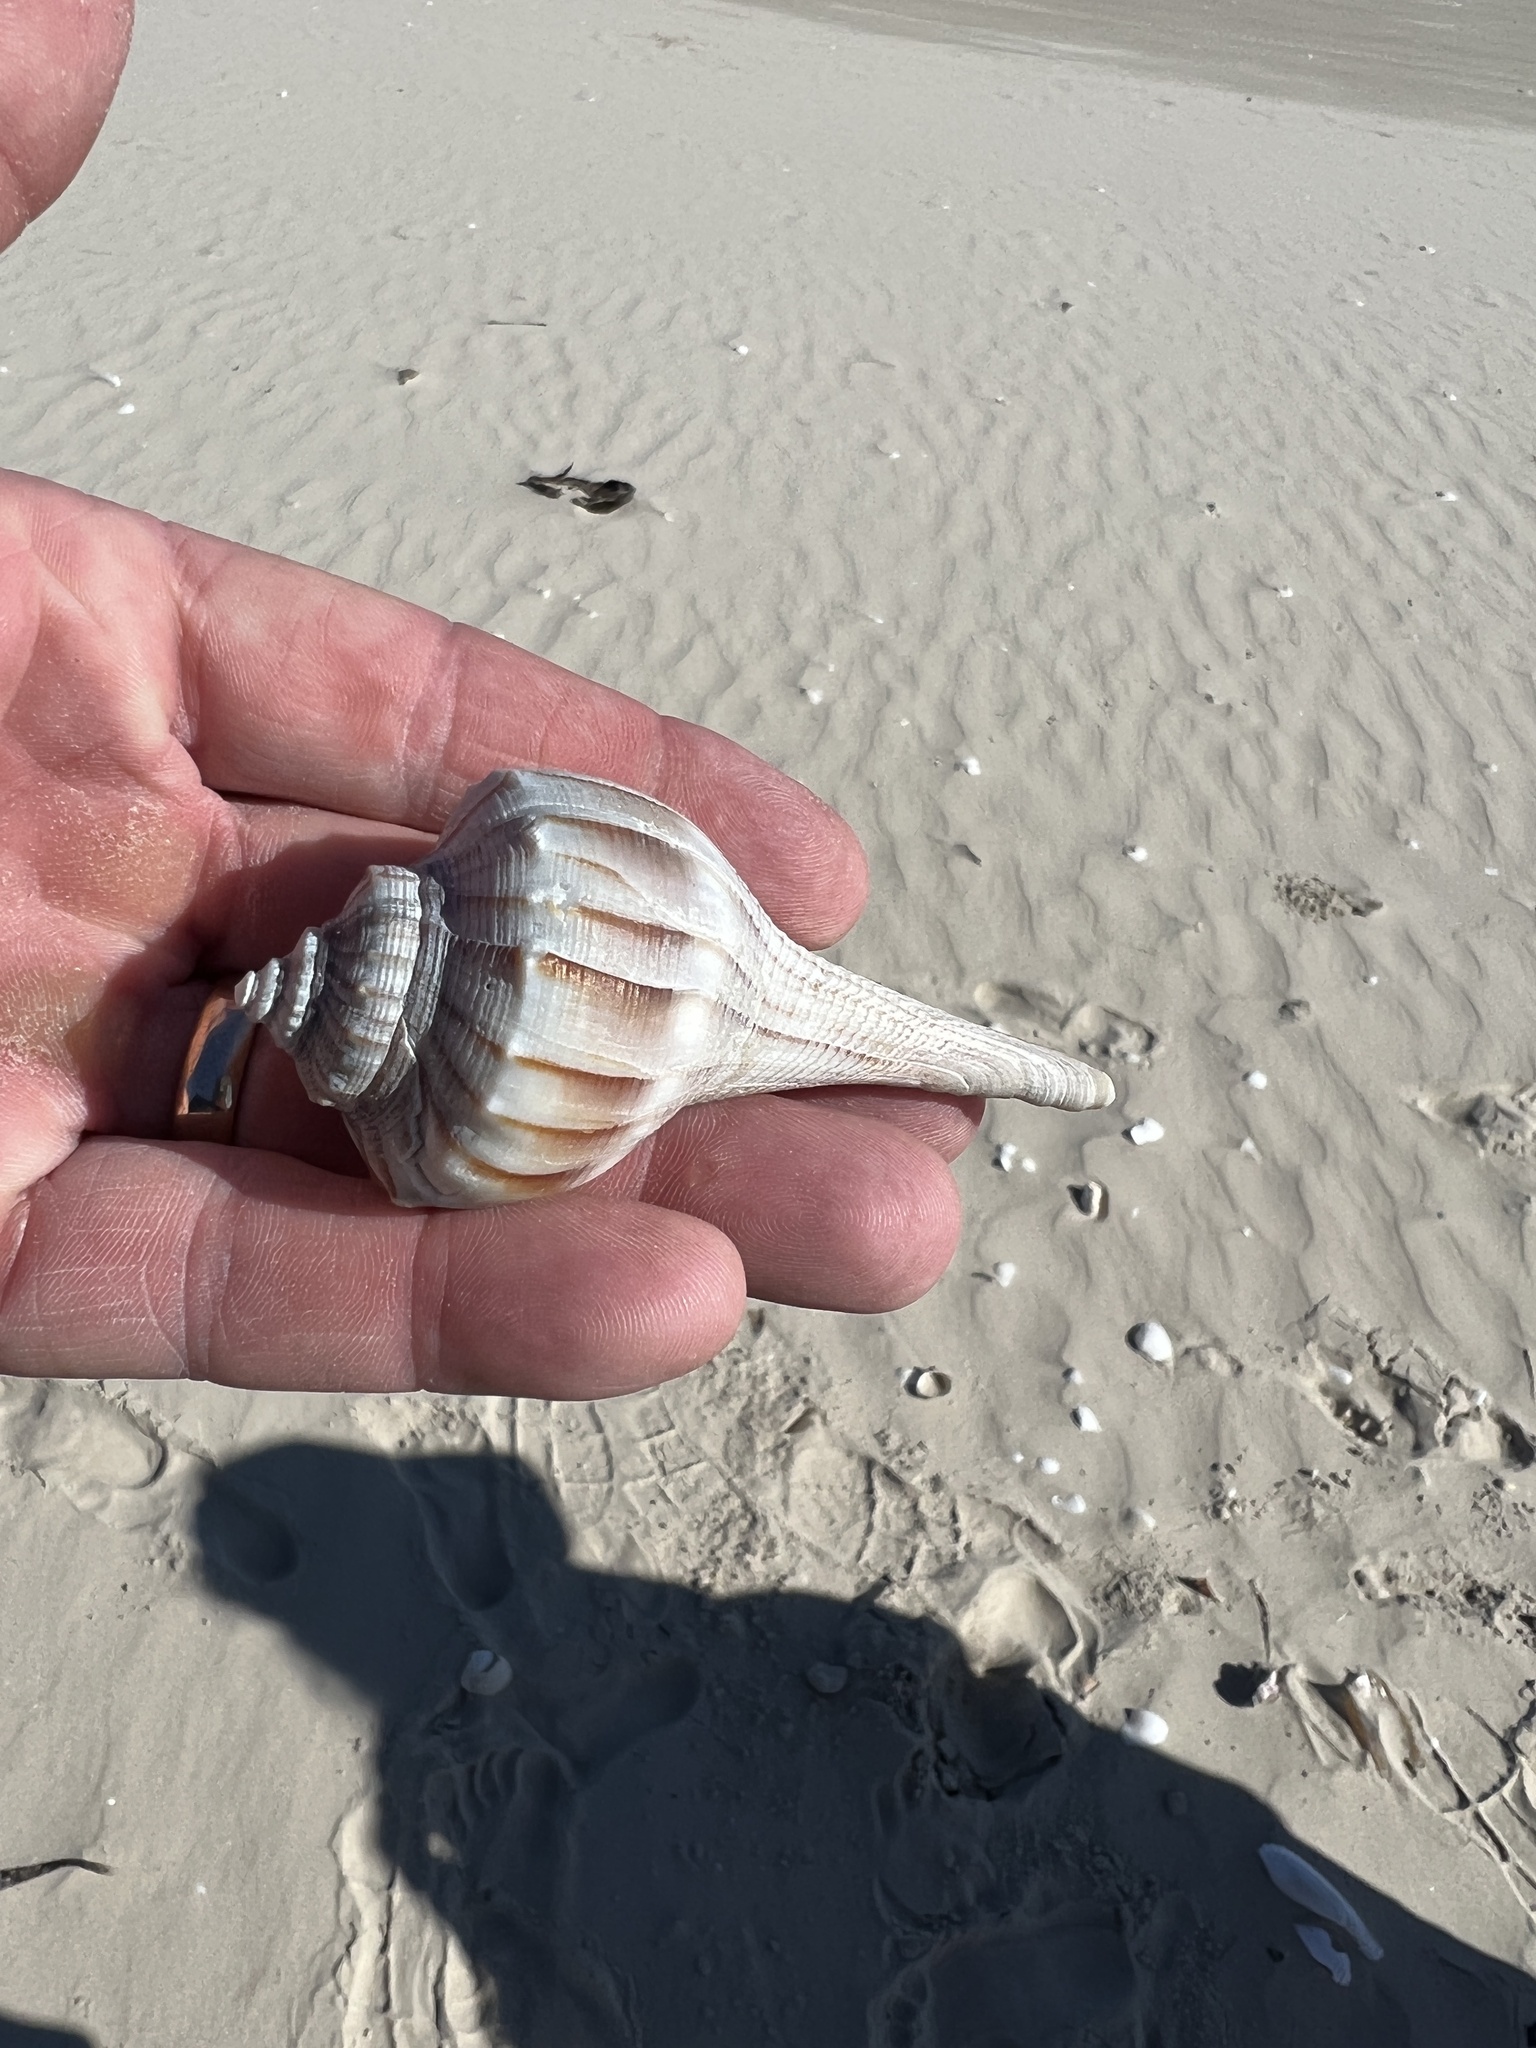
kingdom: Animalia
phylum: Mollusca
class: Gastropoda
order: Neogastropoda
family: Busyconidae
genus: Sinistrofulgur
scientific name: Sinistrofulgur pulleyi
